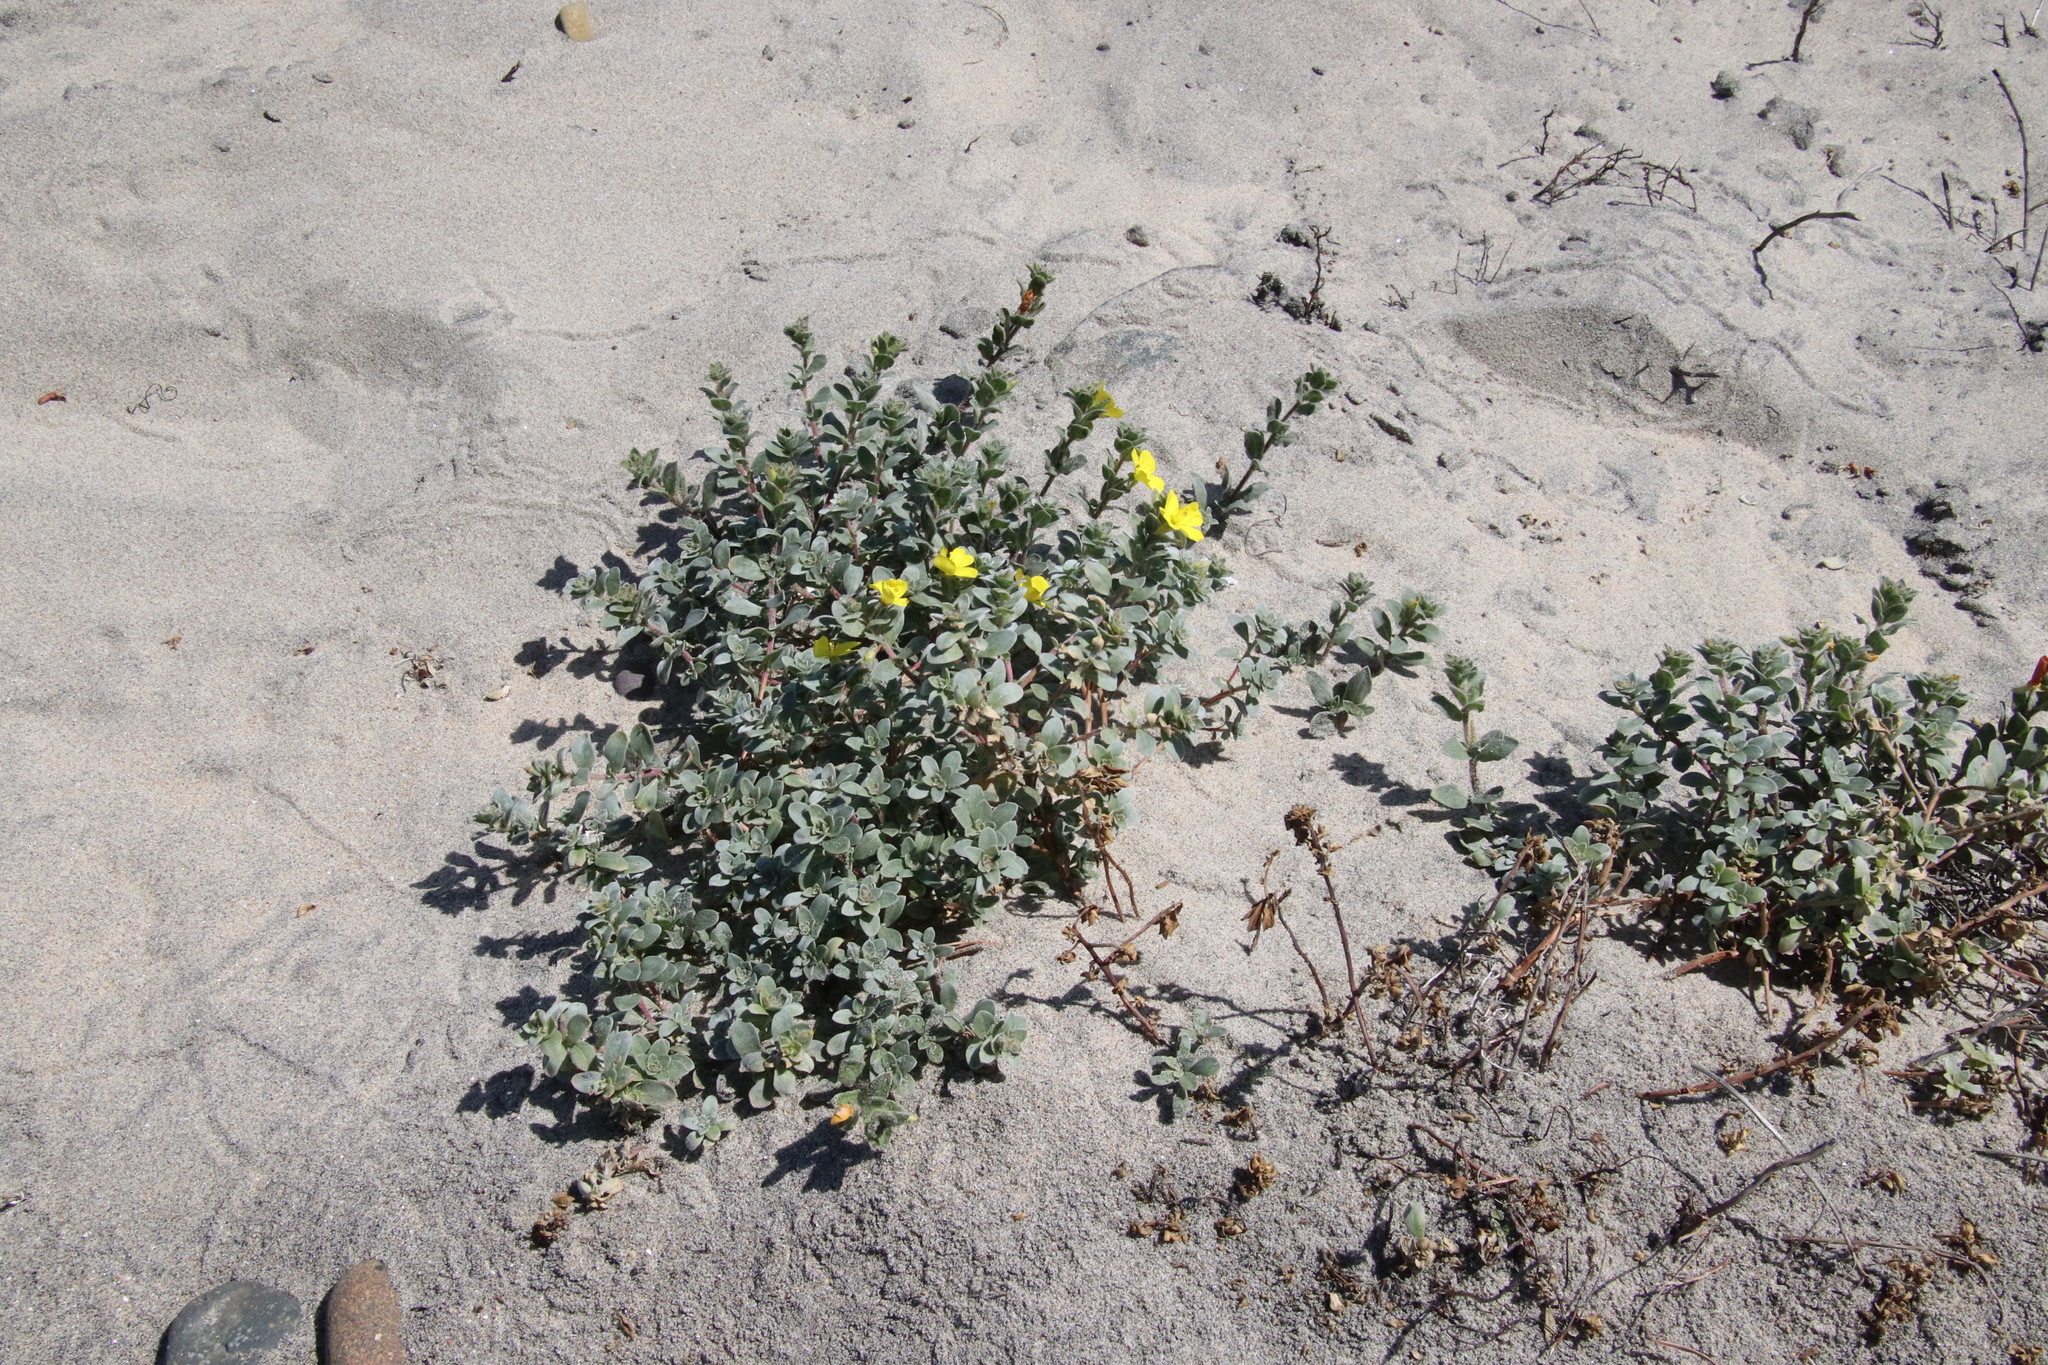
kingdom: Plantae
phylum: Tracheophyta
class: Magnoliopsida
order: Myrtales
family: Onagraceae
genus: Camissoniopsis
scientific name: Camissoniopsis cheiranthifolia
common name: Beach suncup
